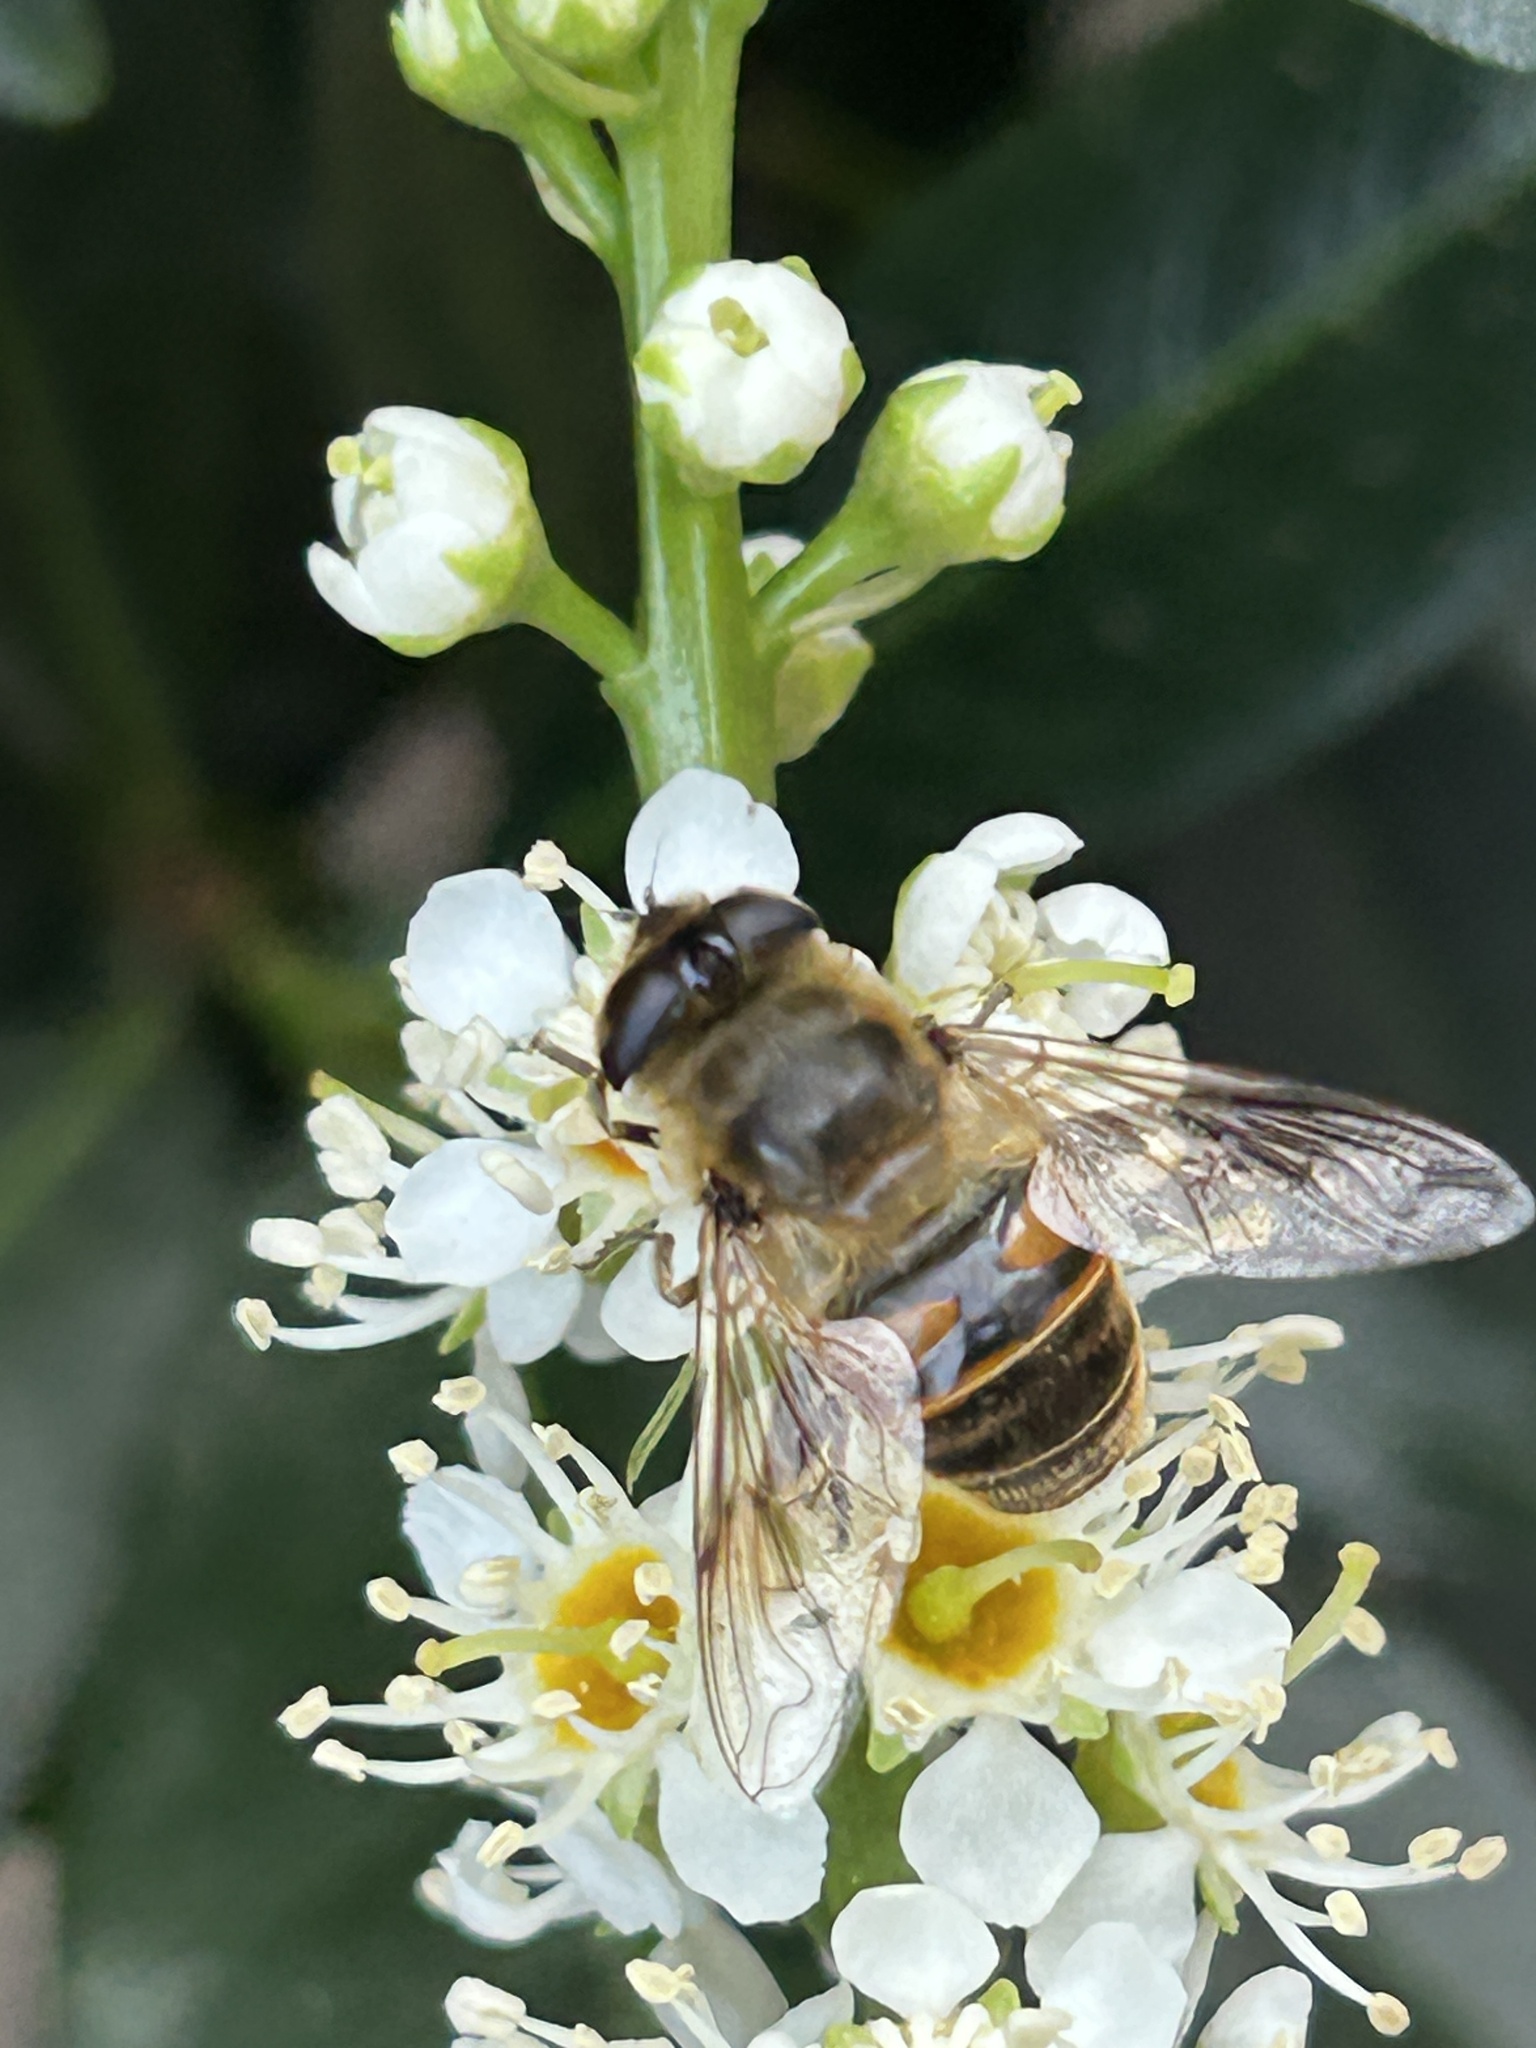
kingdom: Animalia
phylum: Arthropoda
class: Insecta
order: Diptera
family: Syrphidae
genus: Eristalis
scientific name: Eristalis tenax
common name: Drone fly
